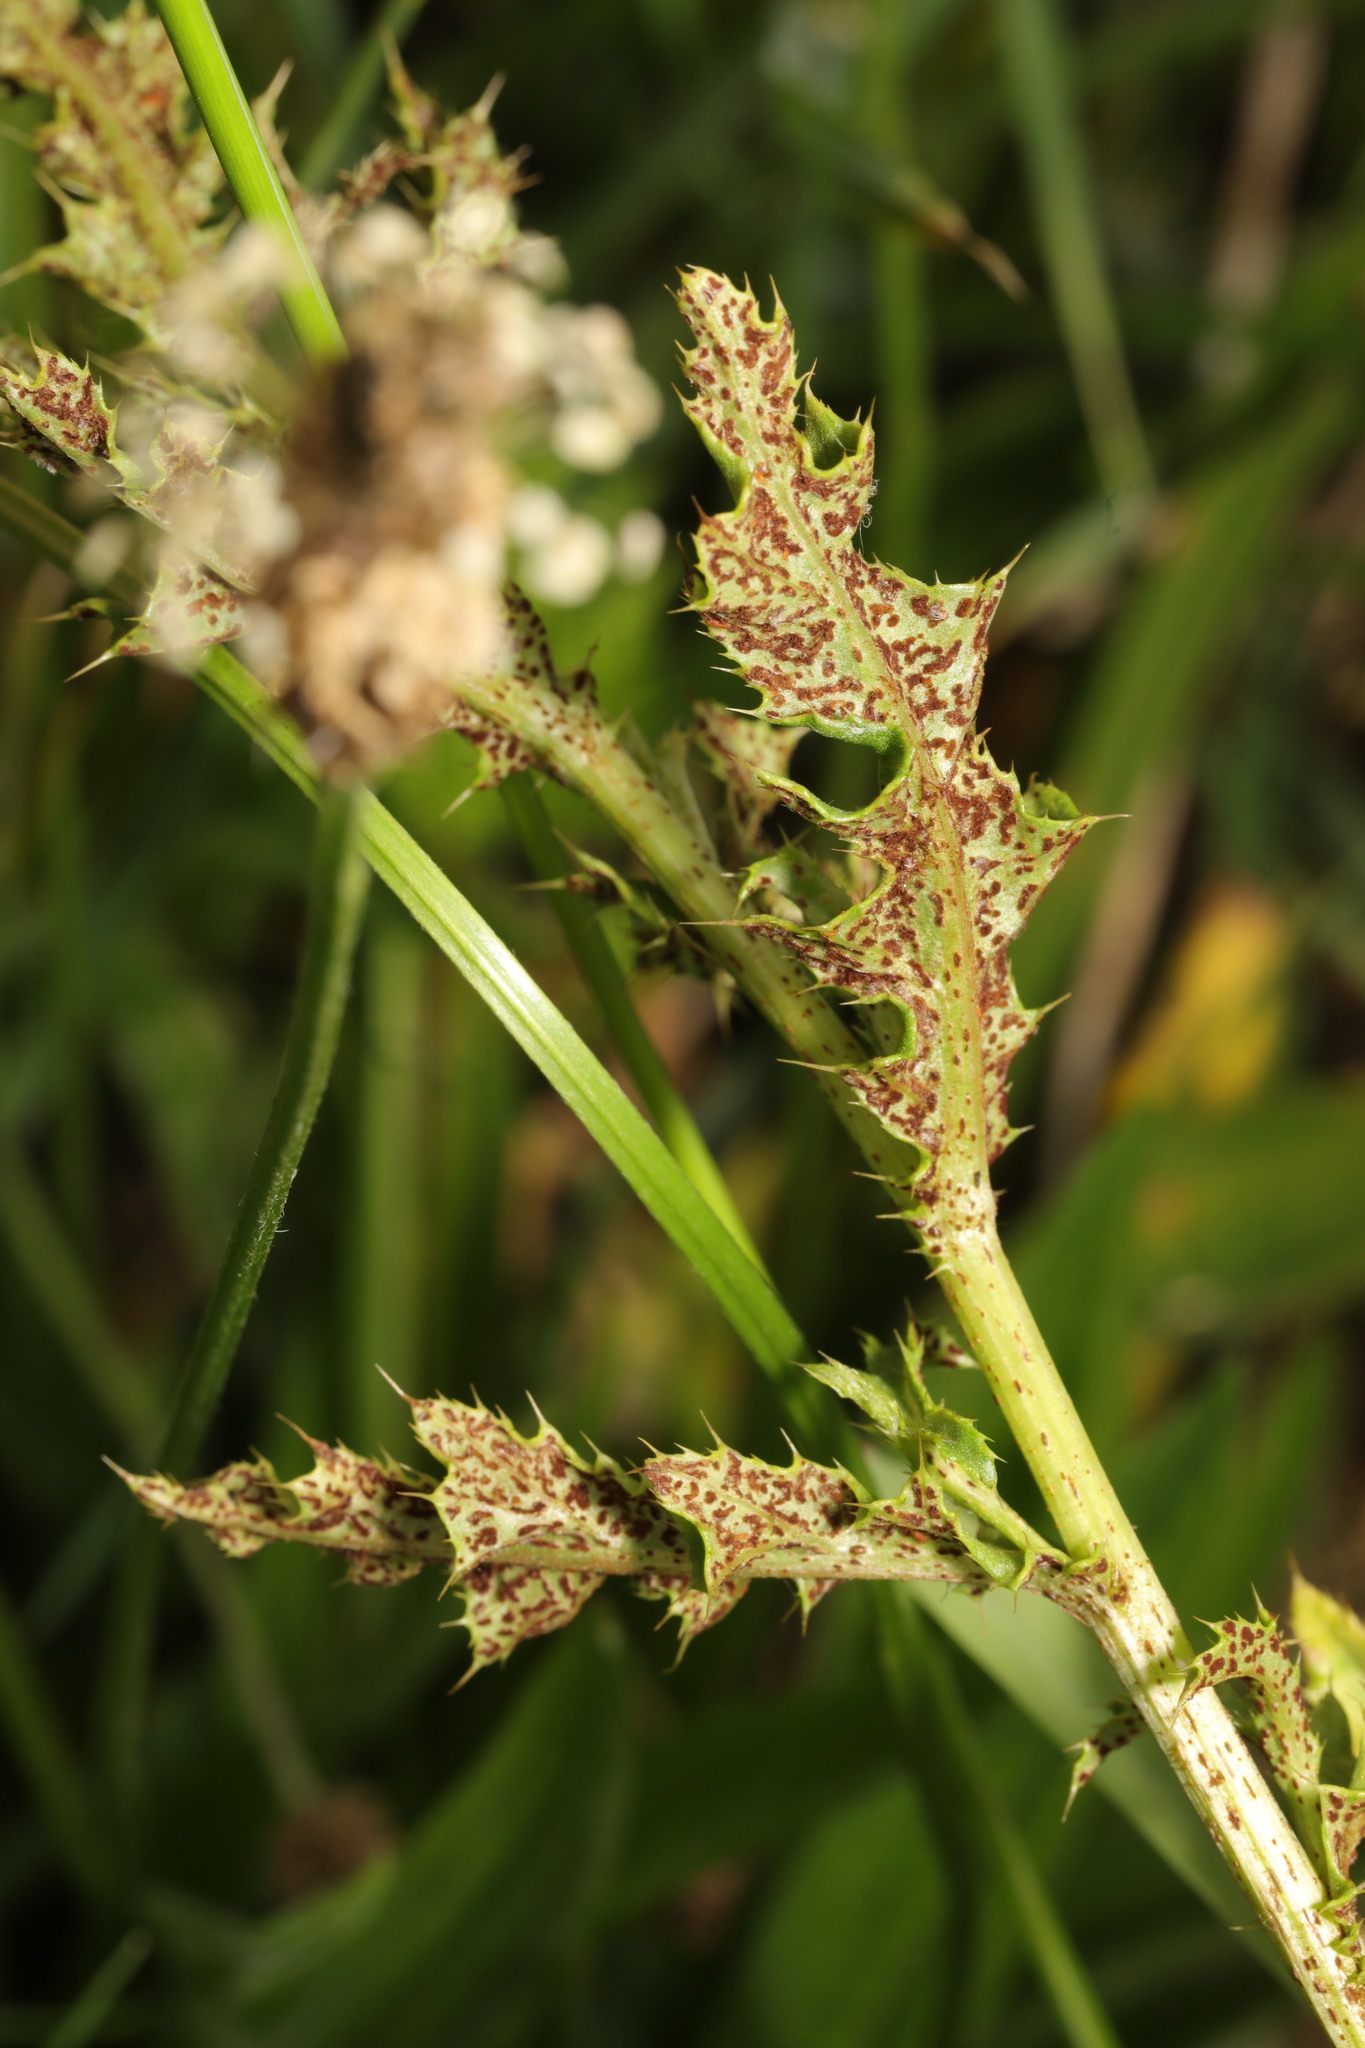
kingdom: Fungi
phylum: Basidiomycota
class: Pucciniomycetes
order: Pucciniales
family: Pucciniaceae
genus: Puccinia
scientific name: Puccinia suaveolens
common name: Thistle rust
